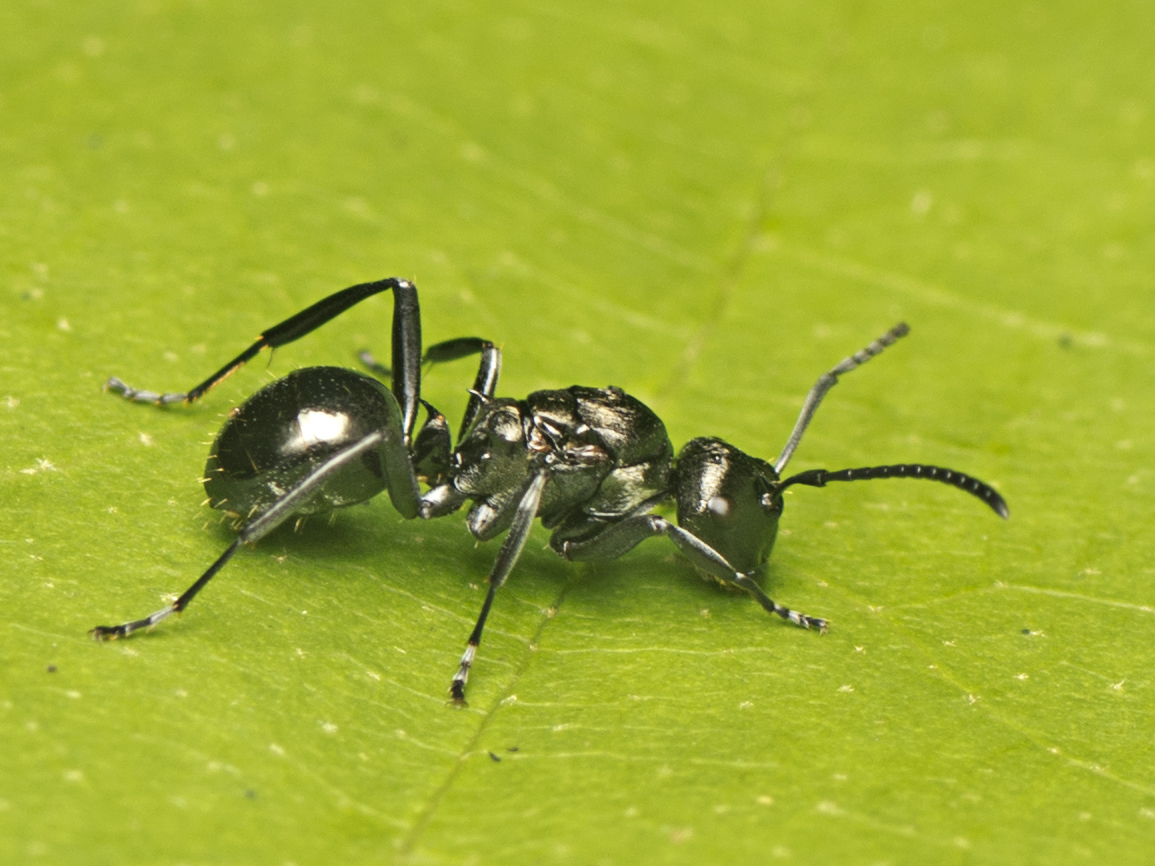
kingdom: Animalia
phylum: Arthropoda
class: Insecta
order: Hymenoptera
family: Formicidae
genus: Polyrhachis
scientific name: Polyrhachis clio
